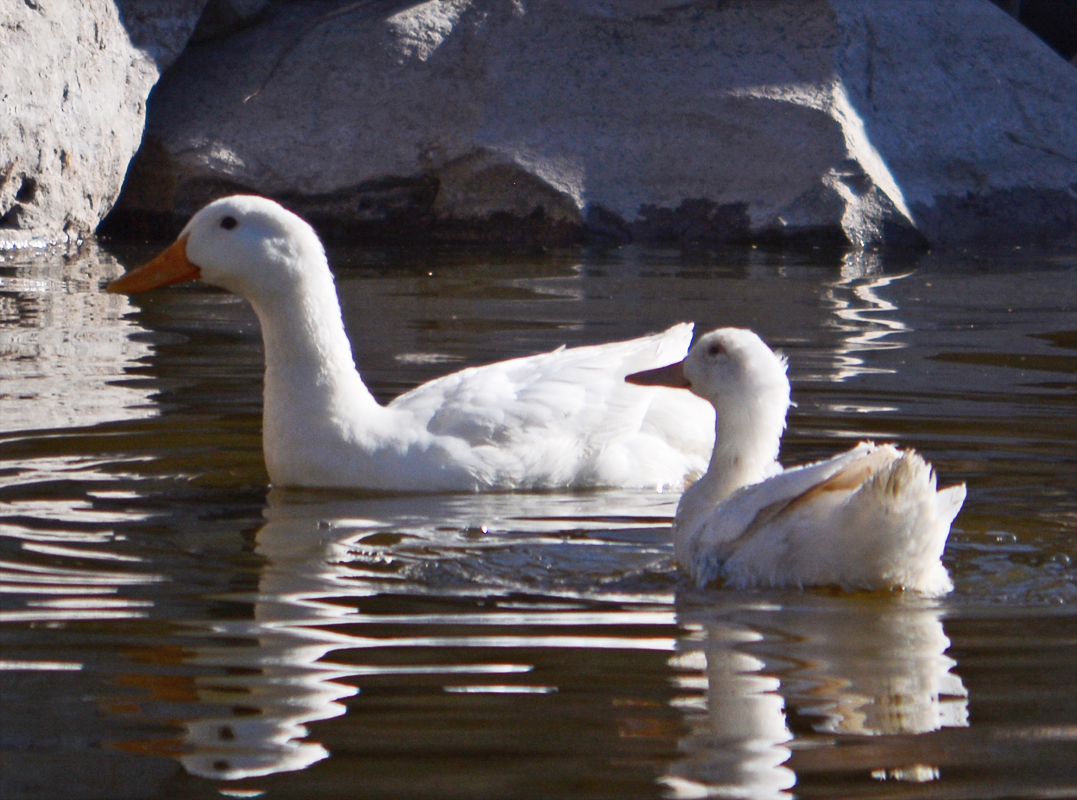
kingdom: Animalia
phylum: Chordata
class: Aves
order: Anseriformes
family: Anatidae
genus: Anas
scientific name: Anas platyrhynchos
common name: Mallard
